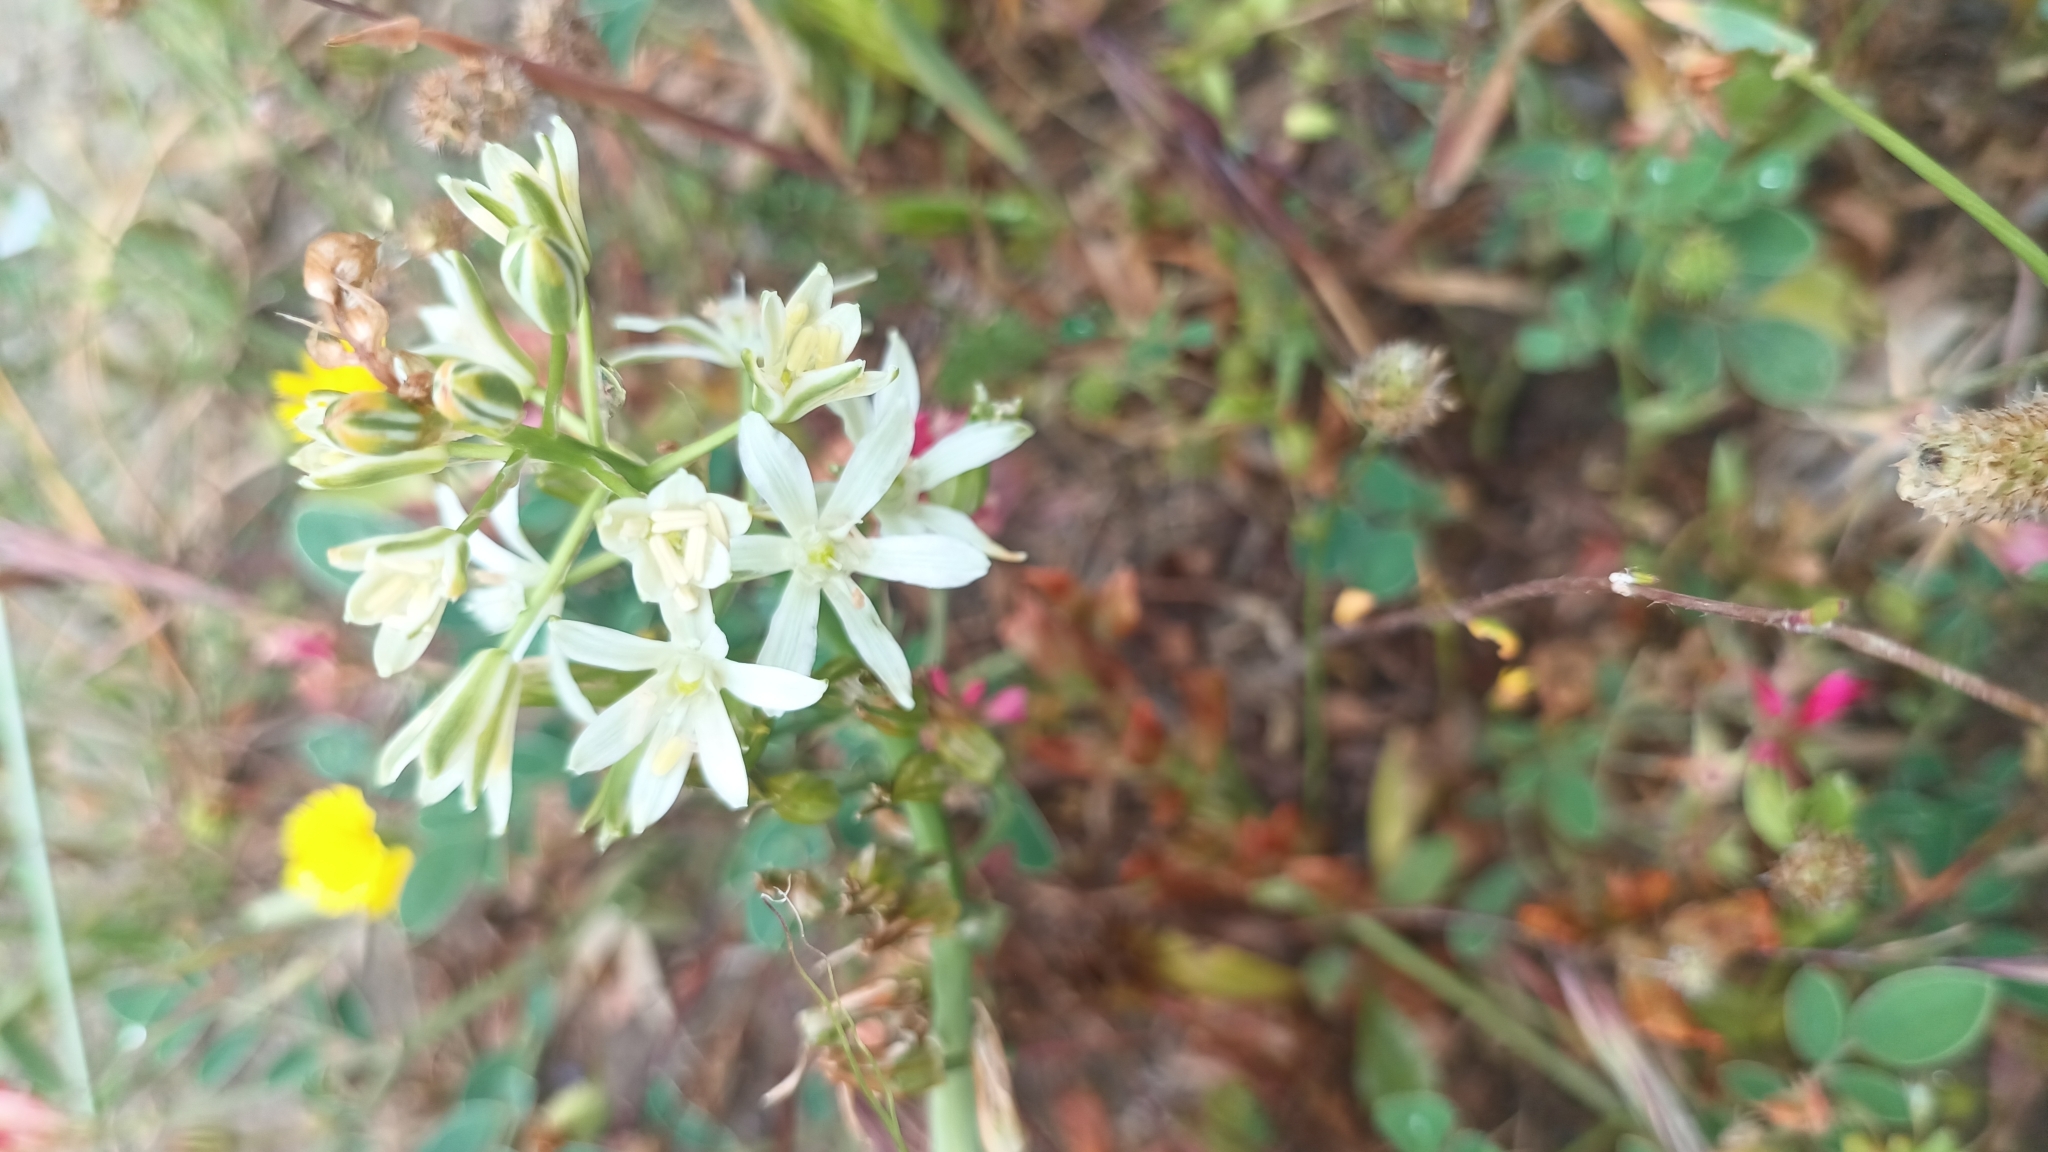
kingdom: Plantae
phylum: Tracheophyta
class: Liliopsida
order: Asparagales
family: Asparagaceae
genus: Ornithogalum
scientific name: Ornithogalum narbonense
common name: Bath-asparagus
